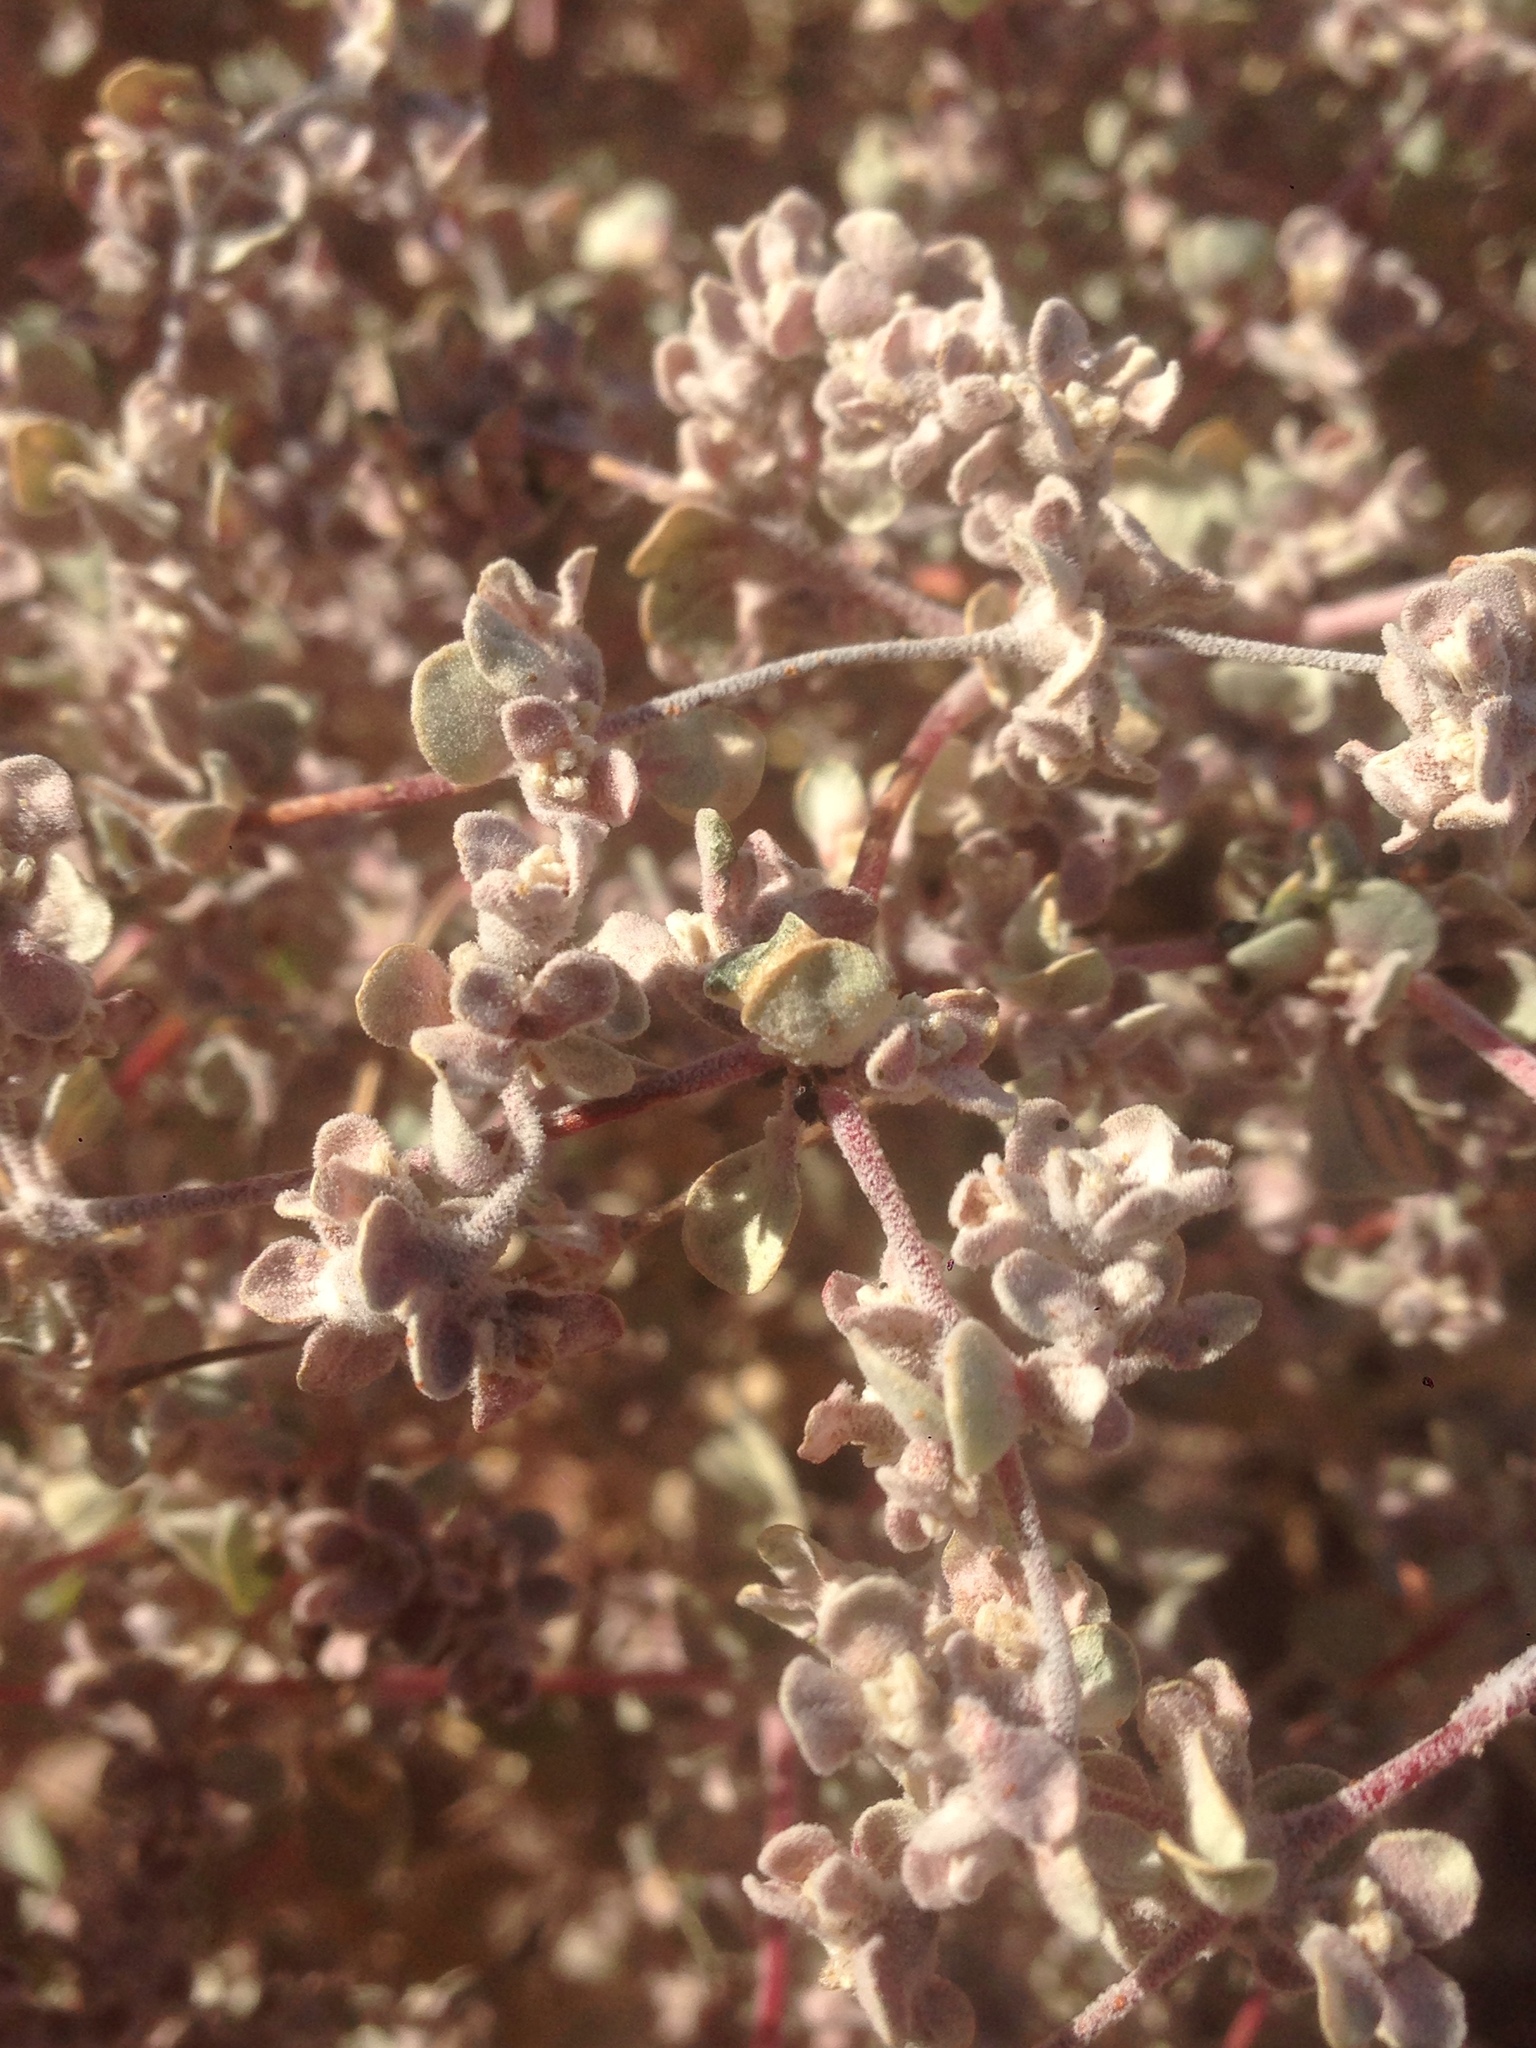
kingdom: Plantae
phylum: Tracheophyta
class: Magnoliopsida
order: Caryophyllales
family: Amaranthaceae
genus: Tidestromia
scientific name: Tidestromia suffruticosa
